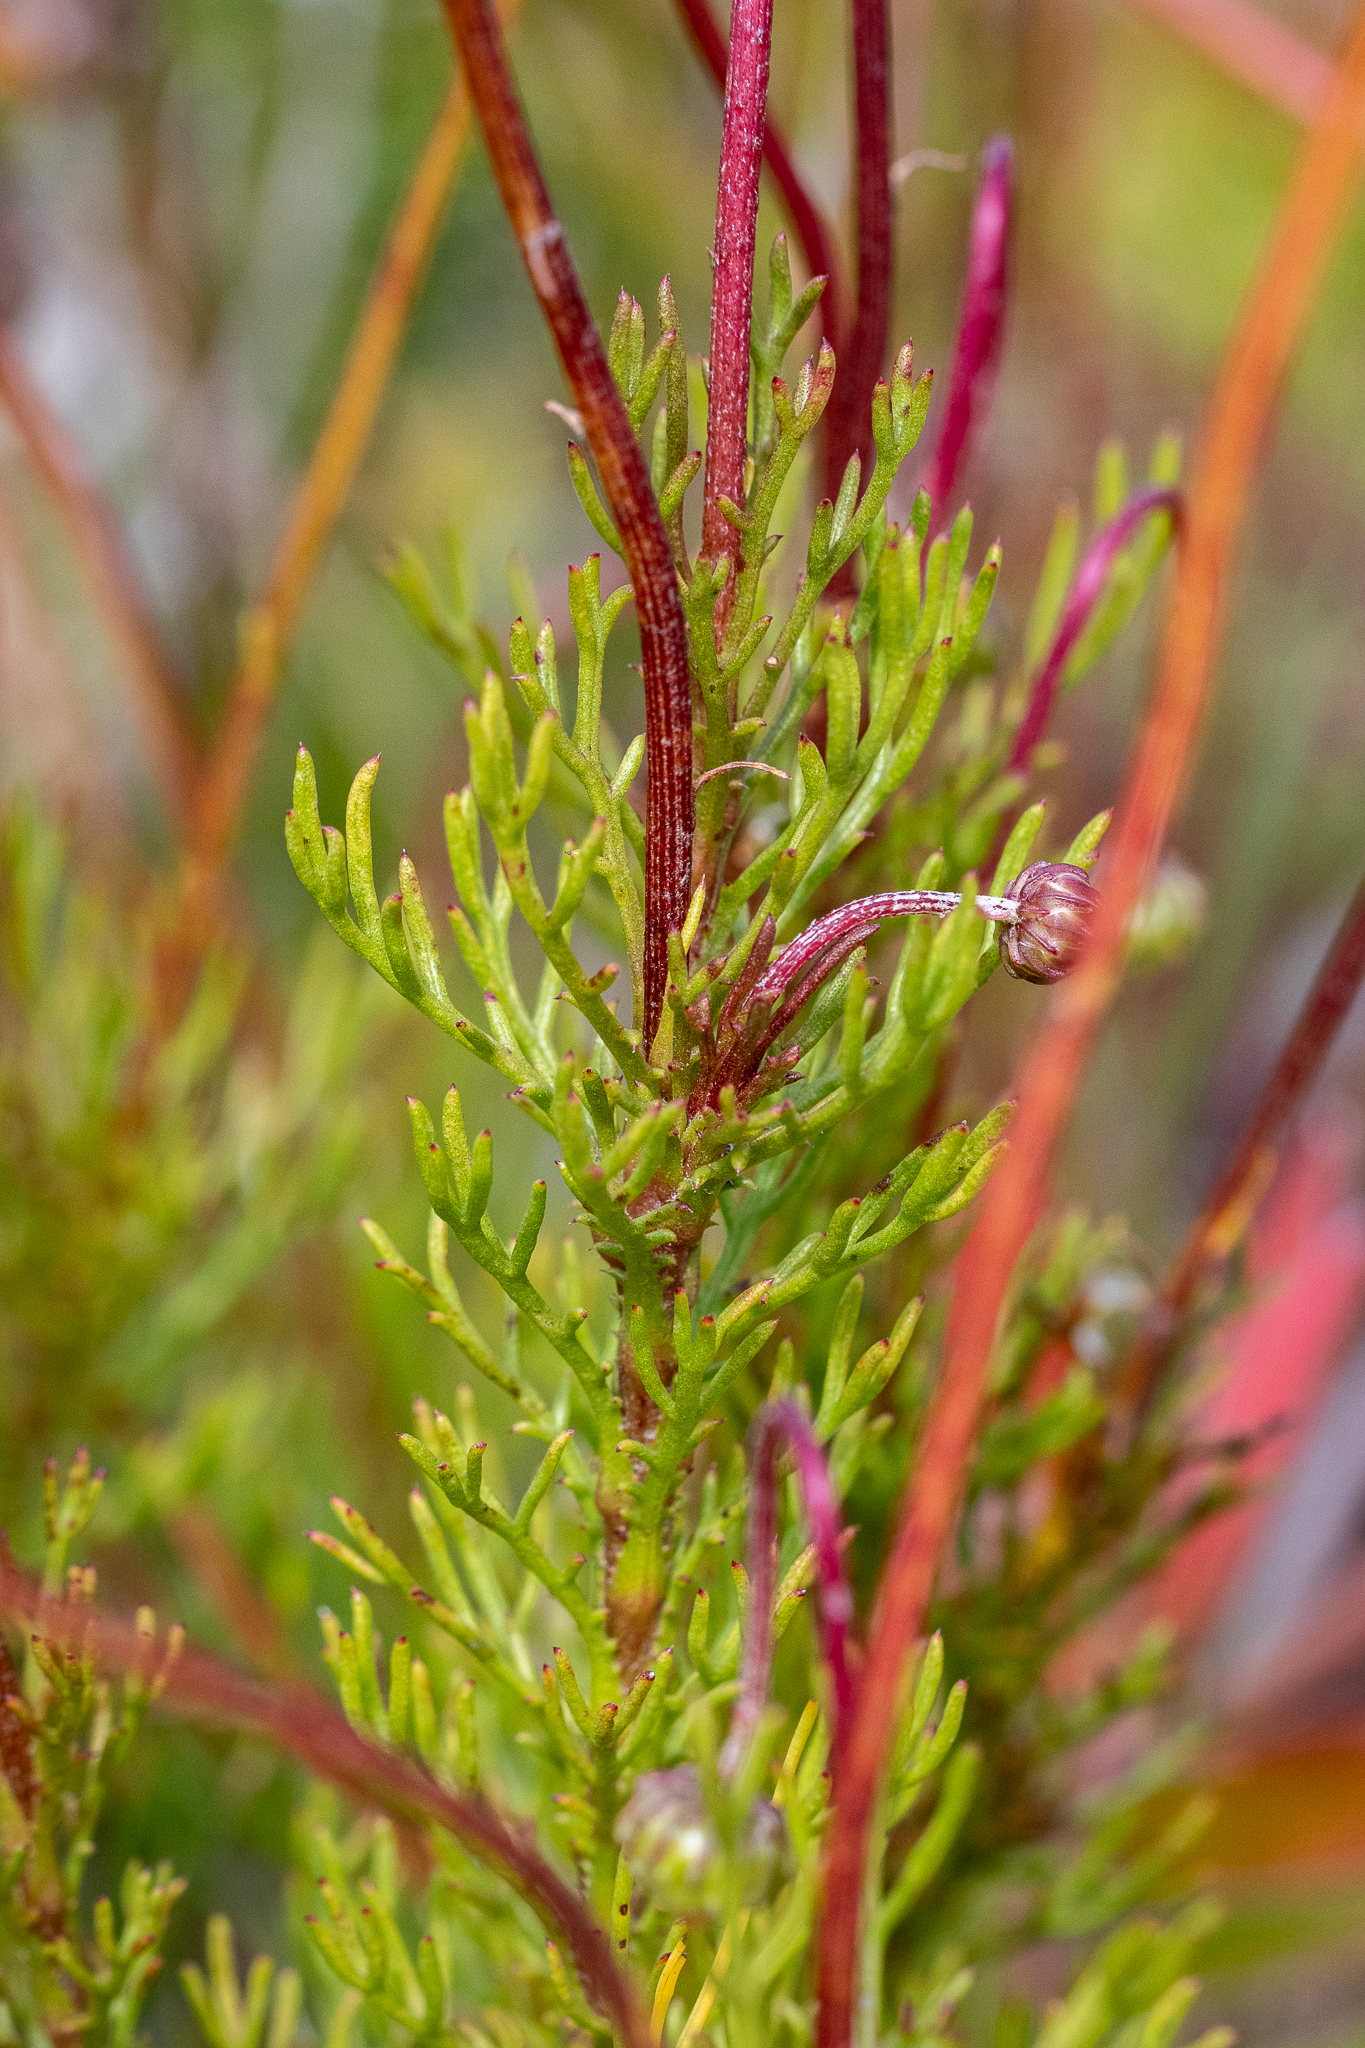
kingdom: Plantae
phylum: Tracheophyta
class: Magnoliopsida
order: Asterales
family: Asteraceae
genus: Ursinia
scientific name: Ursinia paleacea
